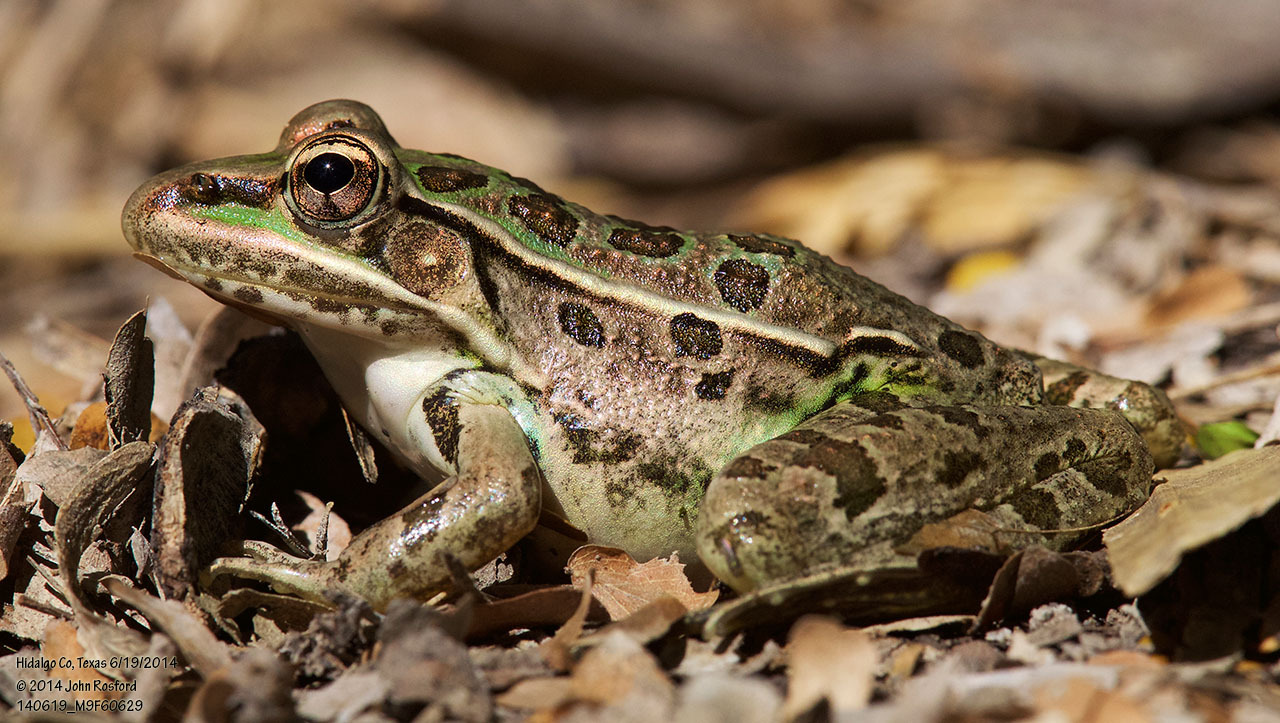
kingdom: Animalia
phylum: Chordata
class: Amphibia
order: Anura
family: Ranidae
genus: Lithobates
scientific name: Lithobates berlandieri
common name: Rio grande leopard frog
